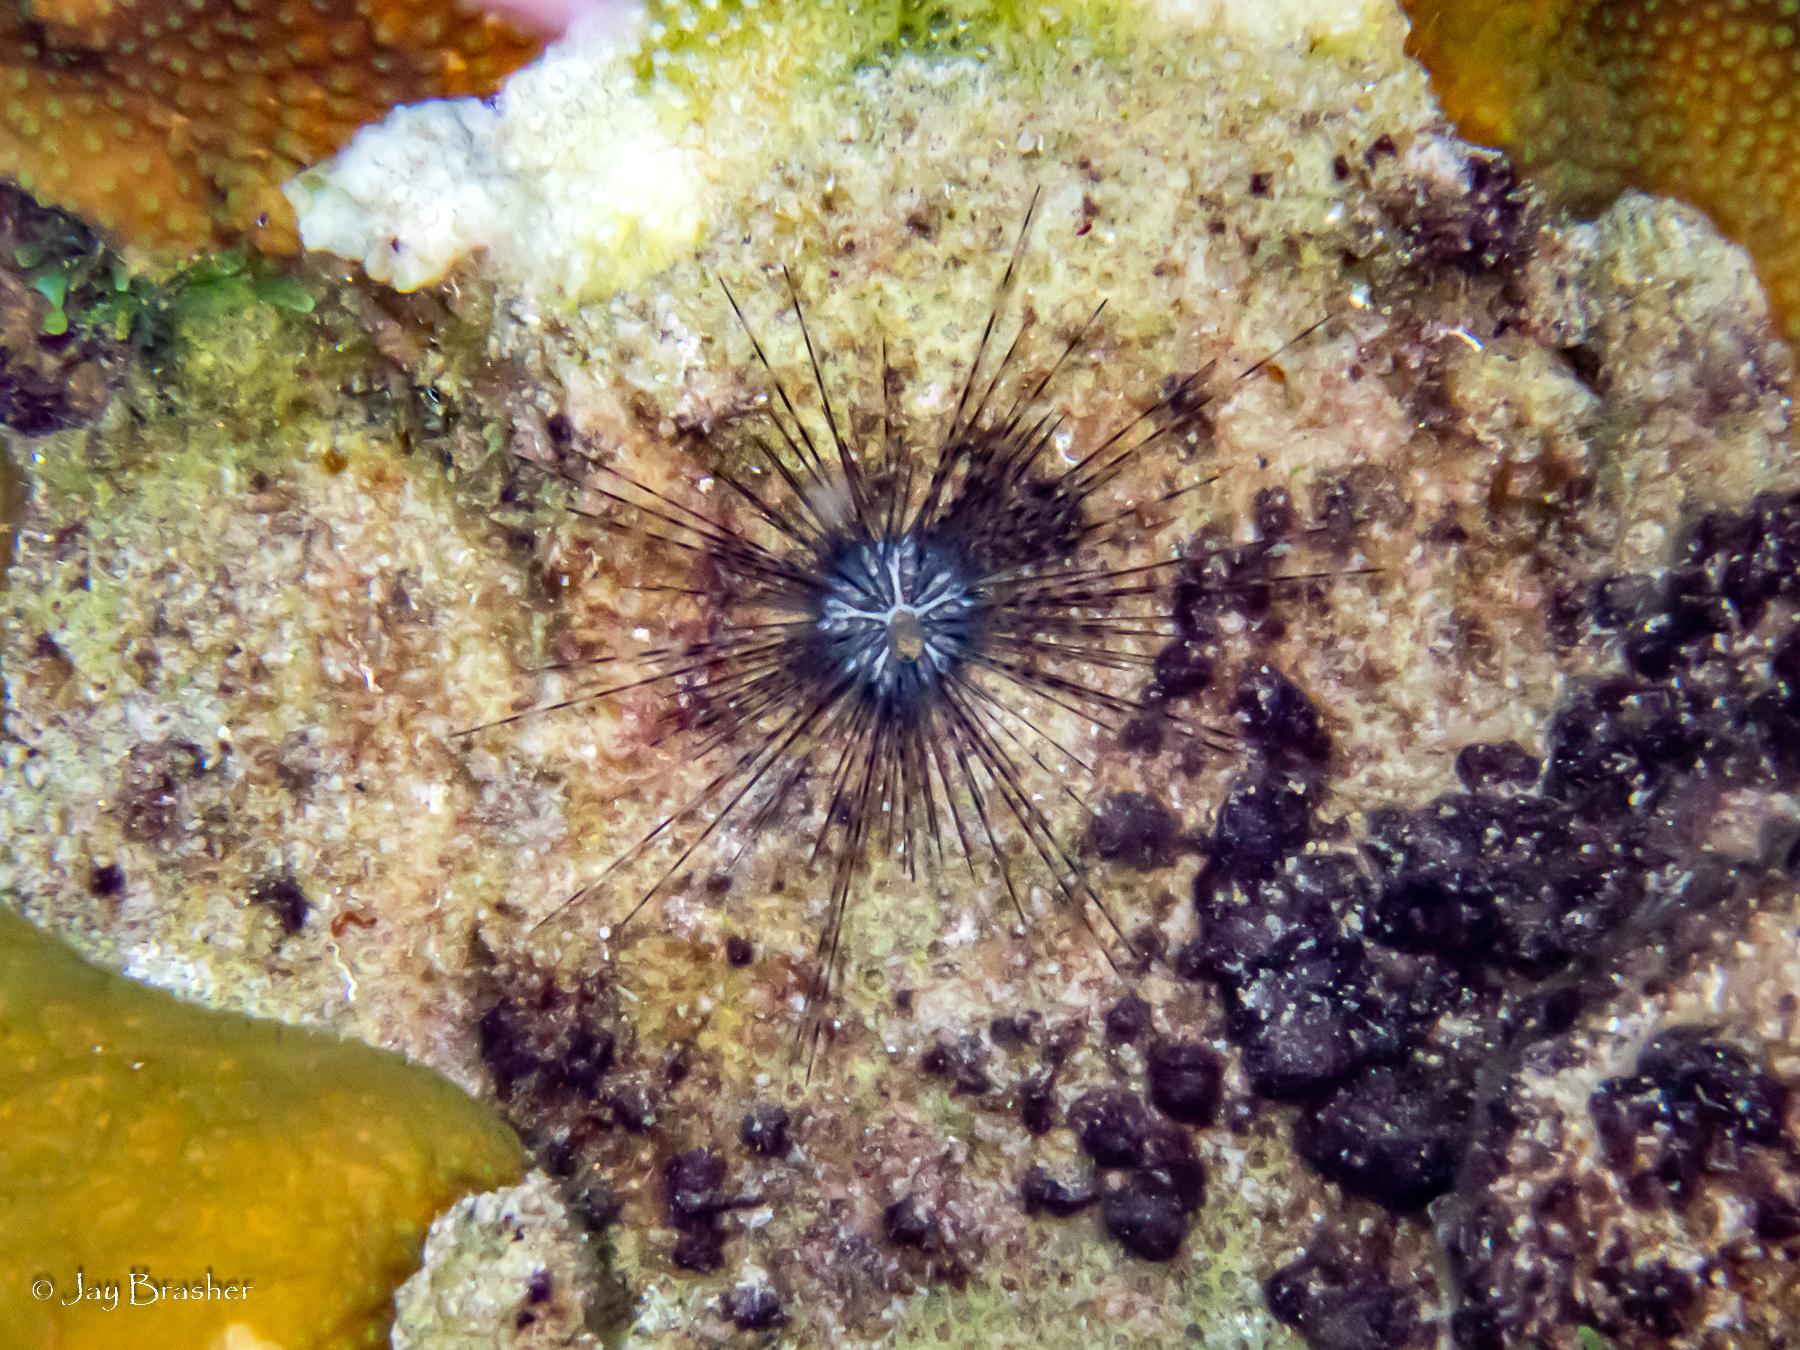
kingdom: Animalia
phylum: Echinodermata
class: Echinoidea
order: Diadematoida
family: Diadematidae
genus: Diadema
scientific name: Diadema antillarum
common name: Spiny urchin
